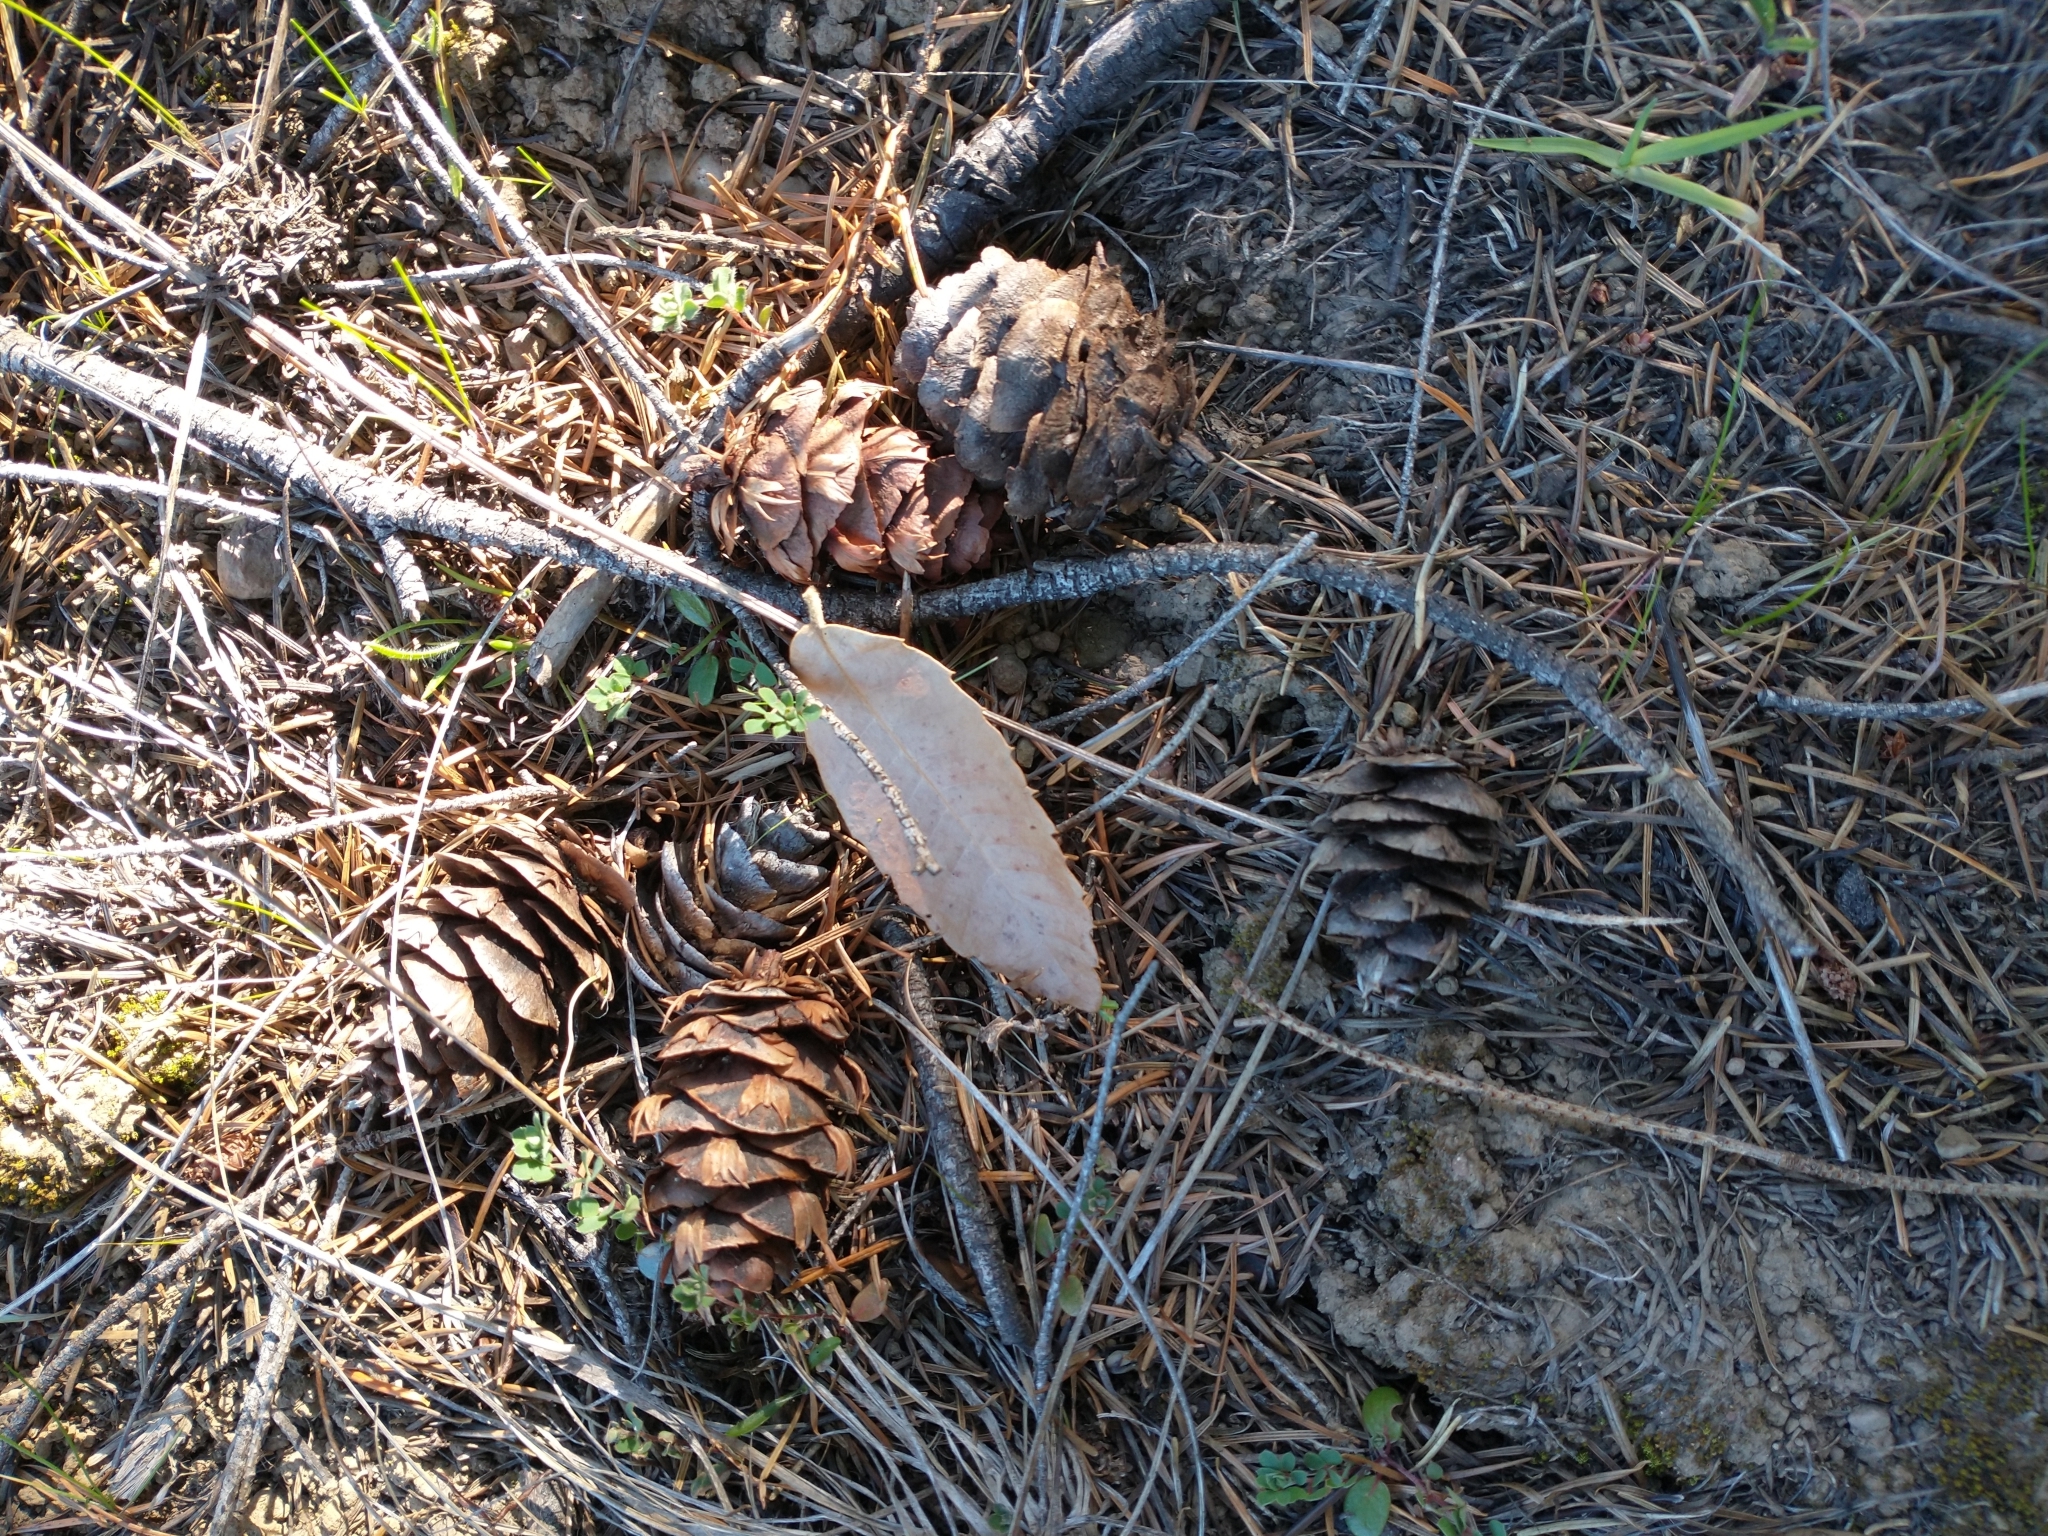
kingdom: Plantae
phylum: Tracheophyta
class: Pinopsida
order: Pinales
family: Pinaceae
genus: Pseudotsuga
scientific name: Pseudotsuga menziesii
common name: Douglas fir
